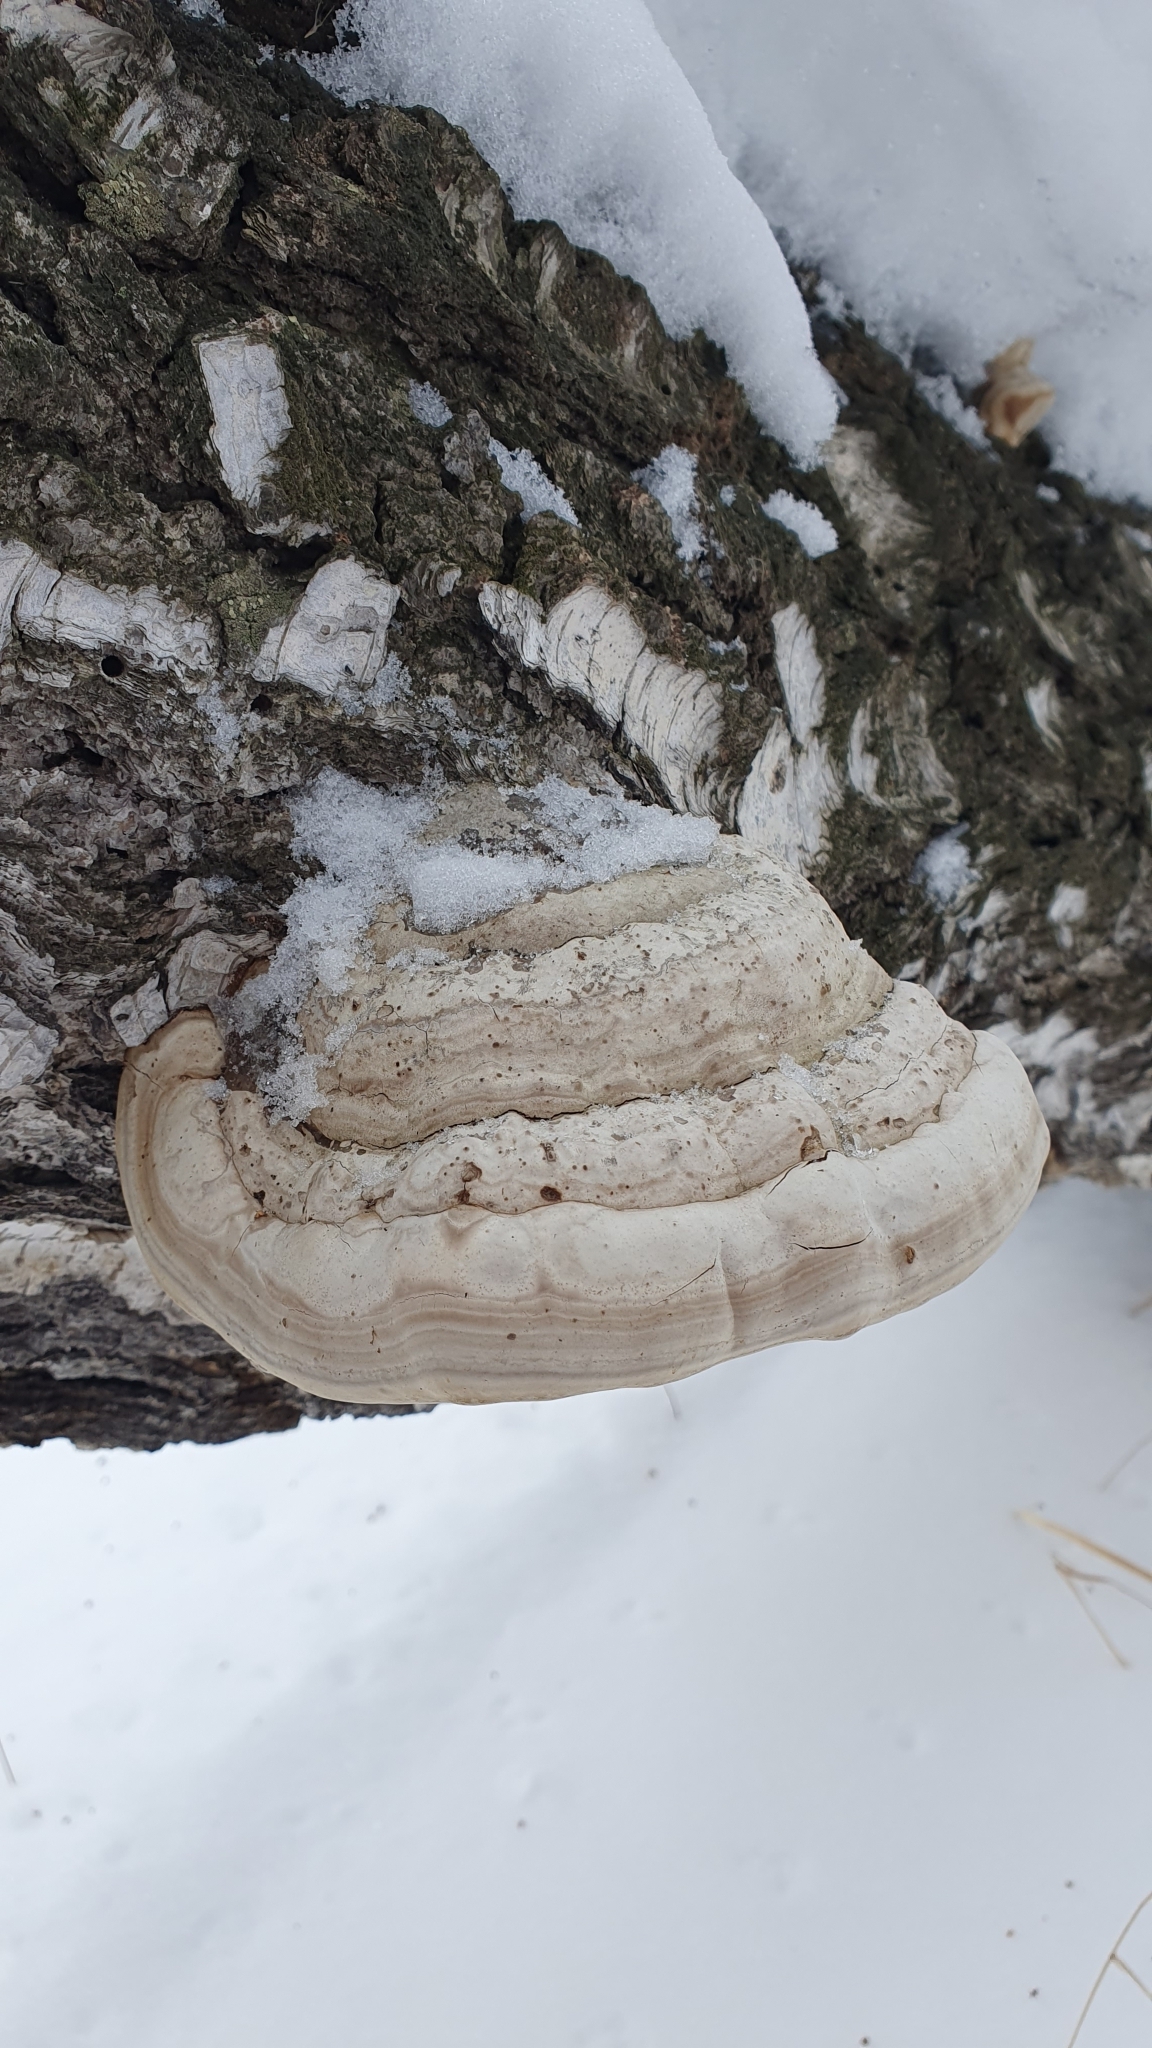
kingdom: Fungi
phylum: Basidiomycota
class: Agaricomycetes
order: Polyporales
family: Polyporaceae
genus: Fomes
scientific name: Fomes fomentarius
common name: Hoof fungus
